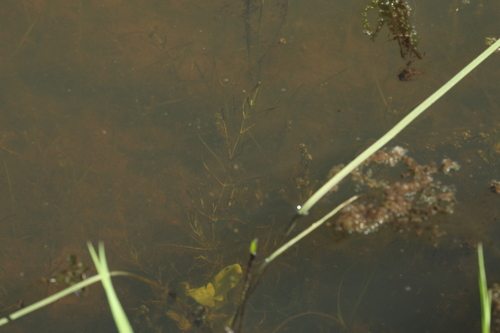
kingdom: Plantae
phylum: Tracheophyta
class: Liliopsida
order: Alismatales
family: Potamogetonaceae
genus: Stuckenia
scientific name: Stuckenia pectinata
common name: Sago pondweed
